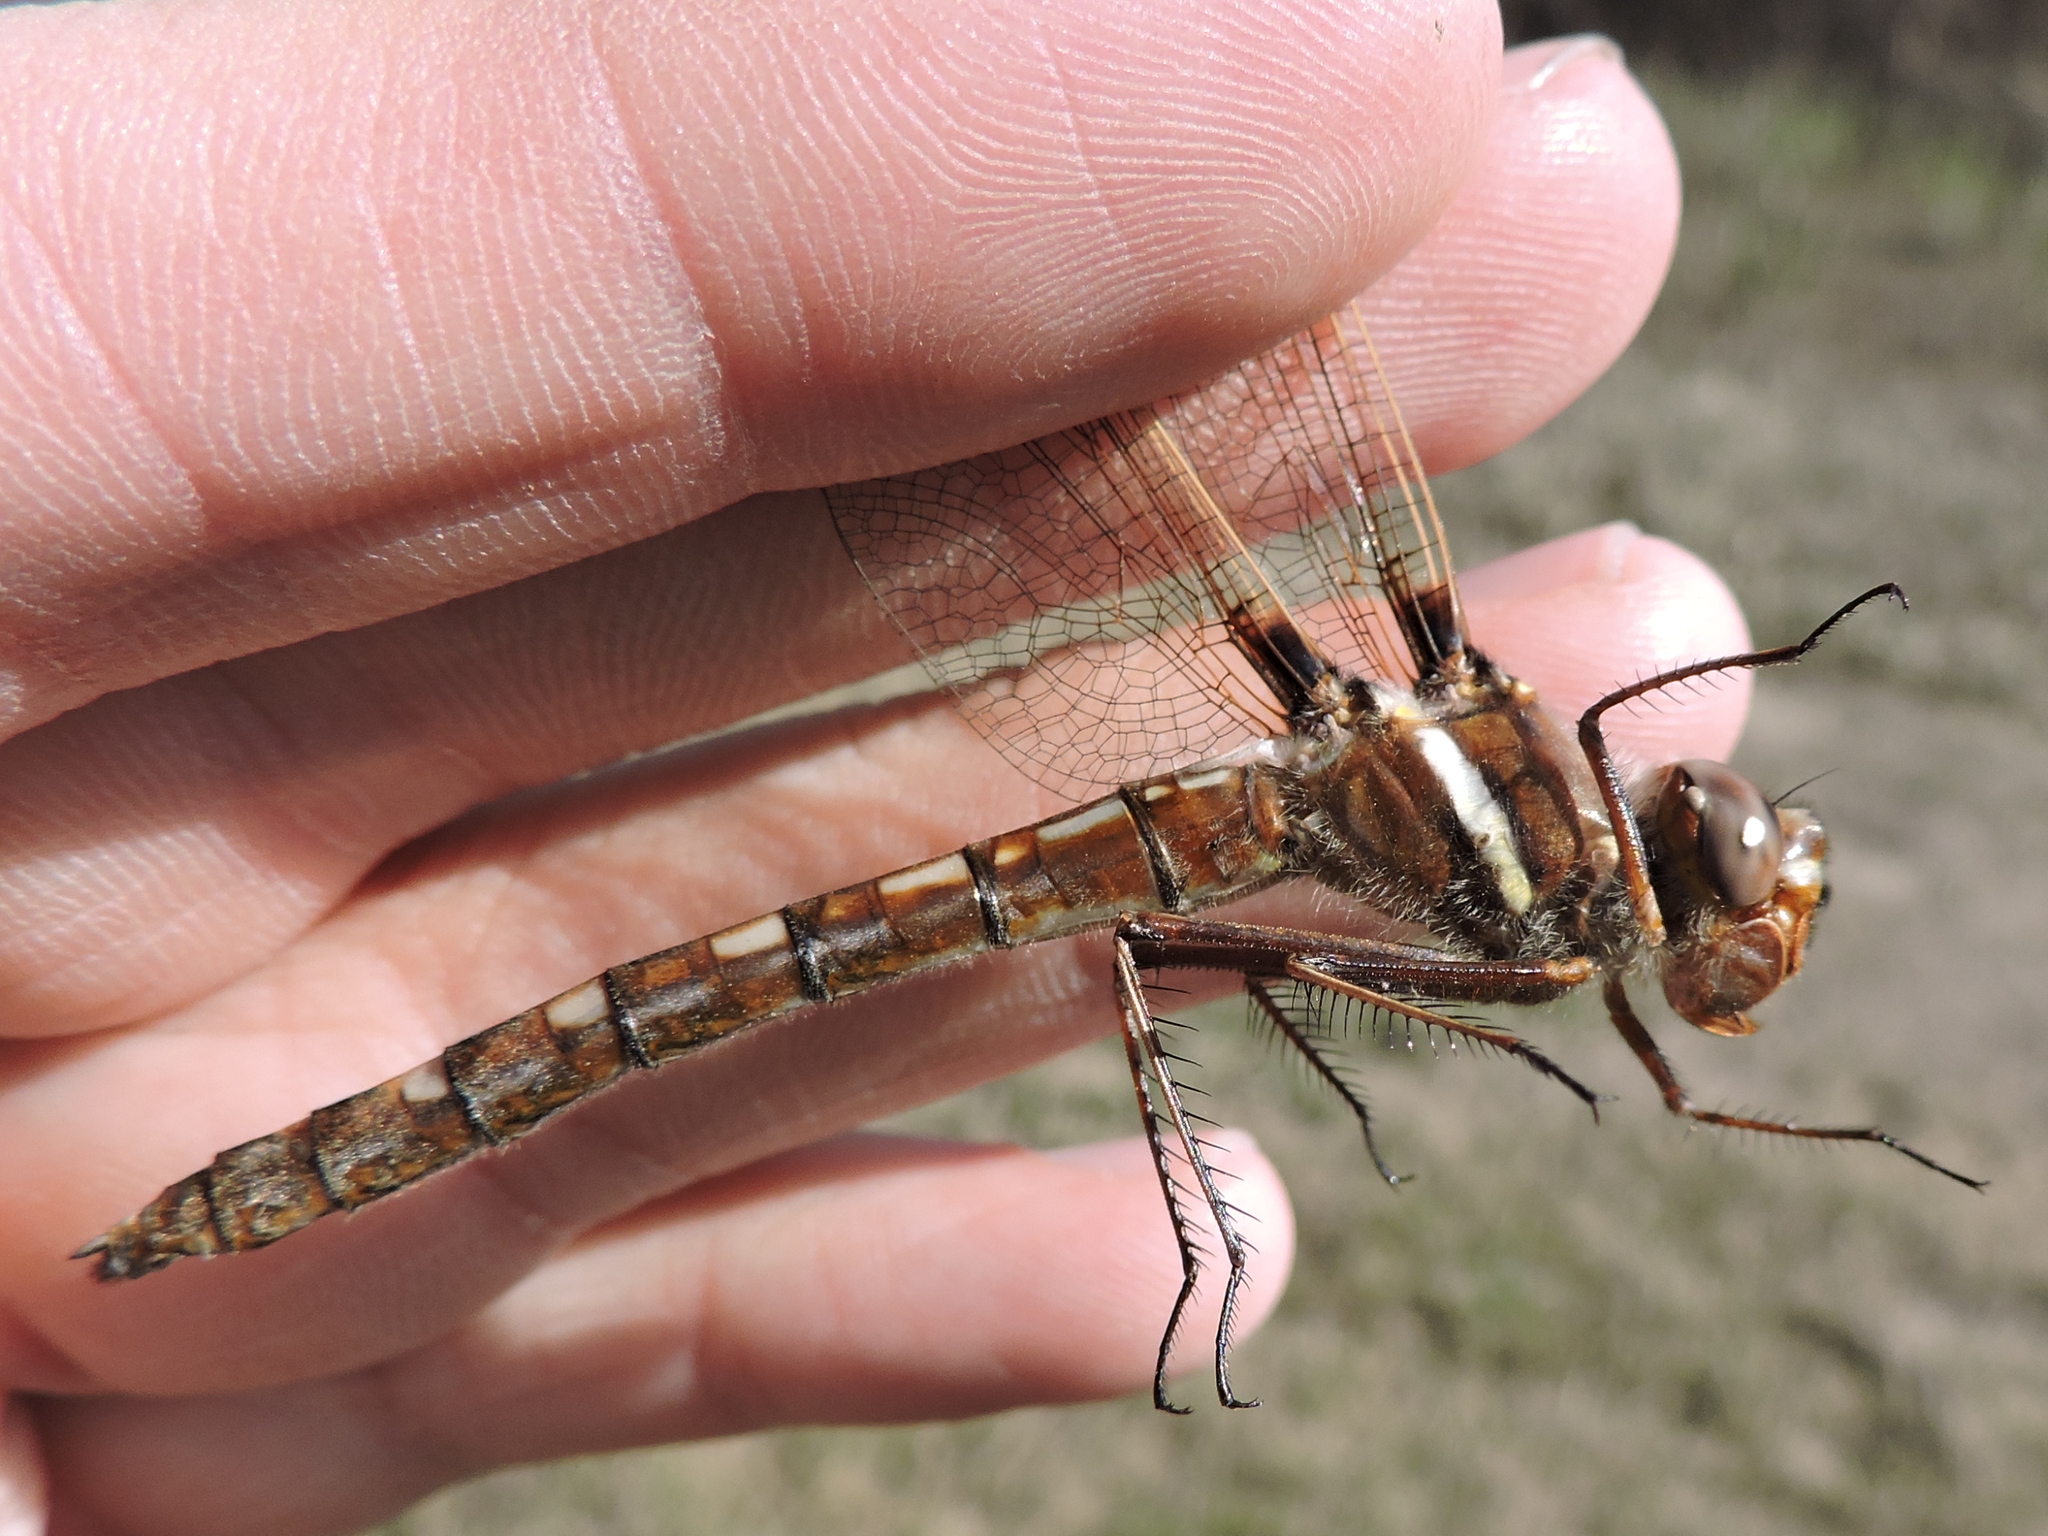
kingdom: Animalia
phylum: Arthropoda
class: Insecta
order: Odonata
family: Macromiidae
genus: Didymops
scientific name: Didymops transversa
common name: Stream cruiser
